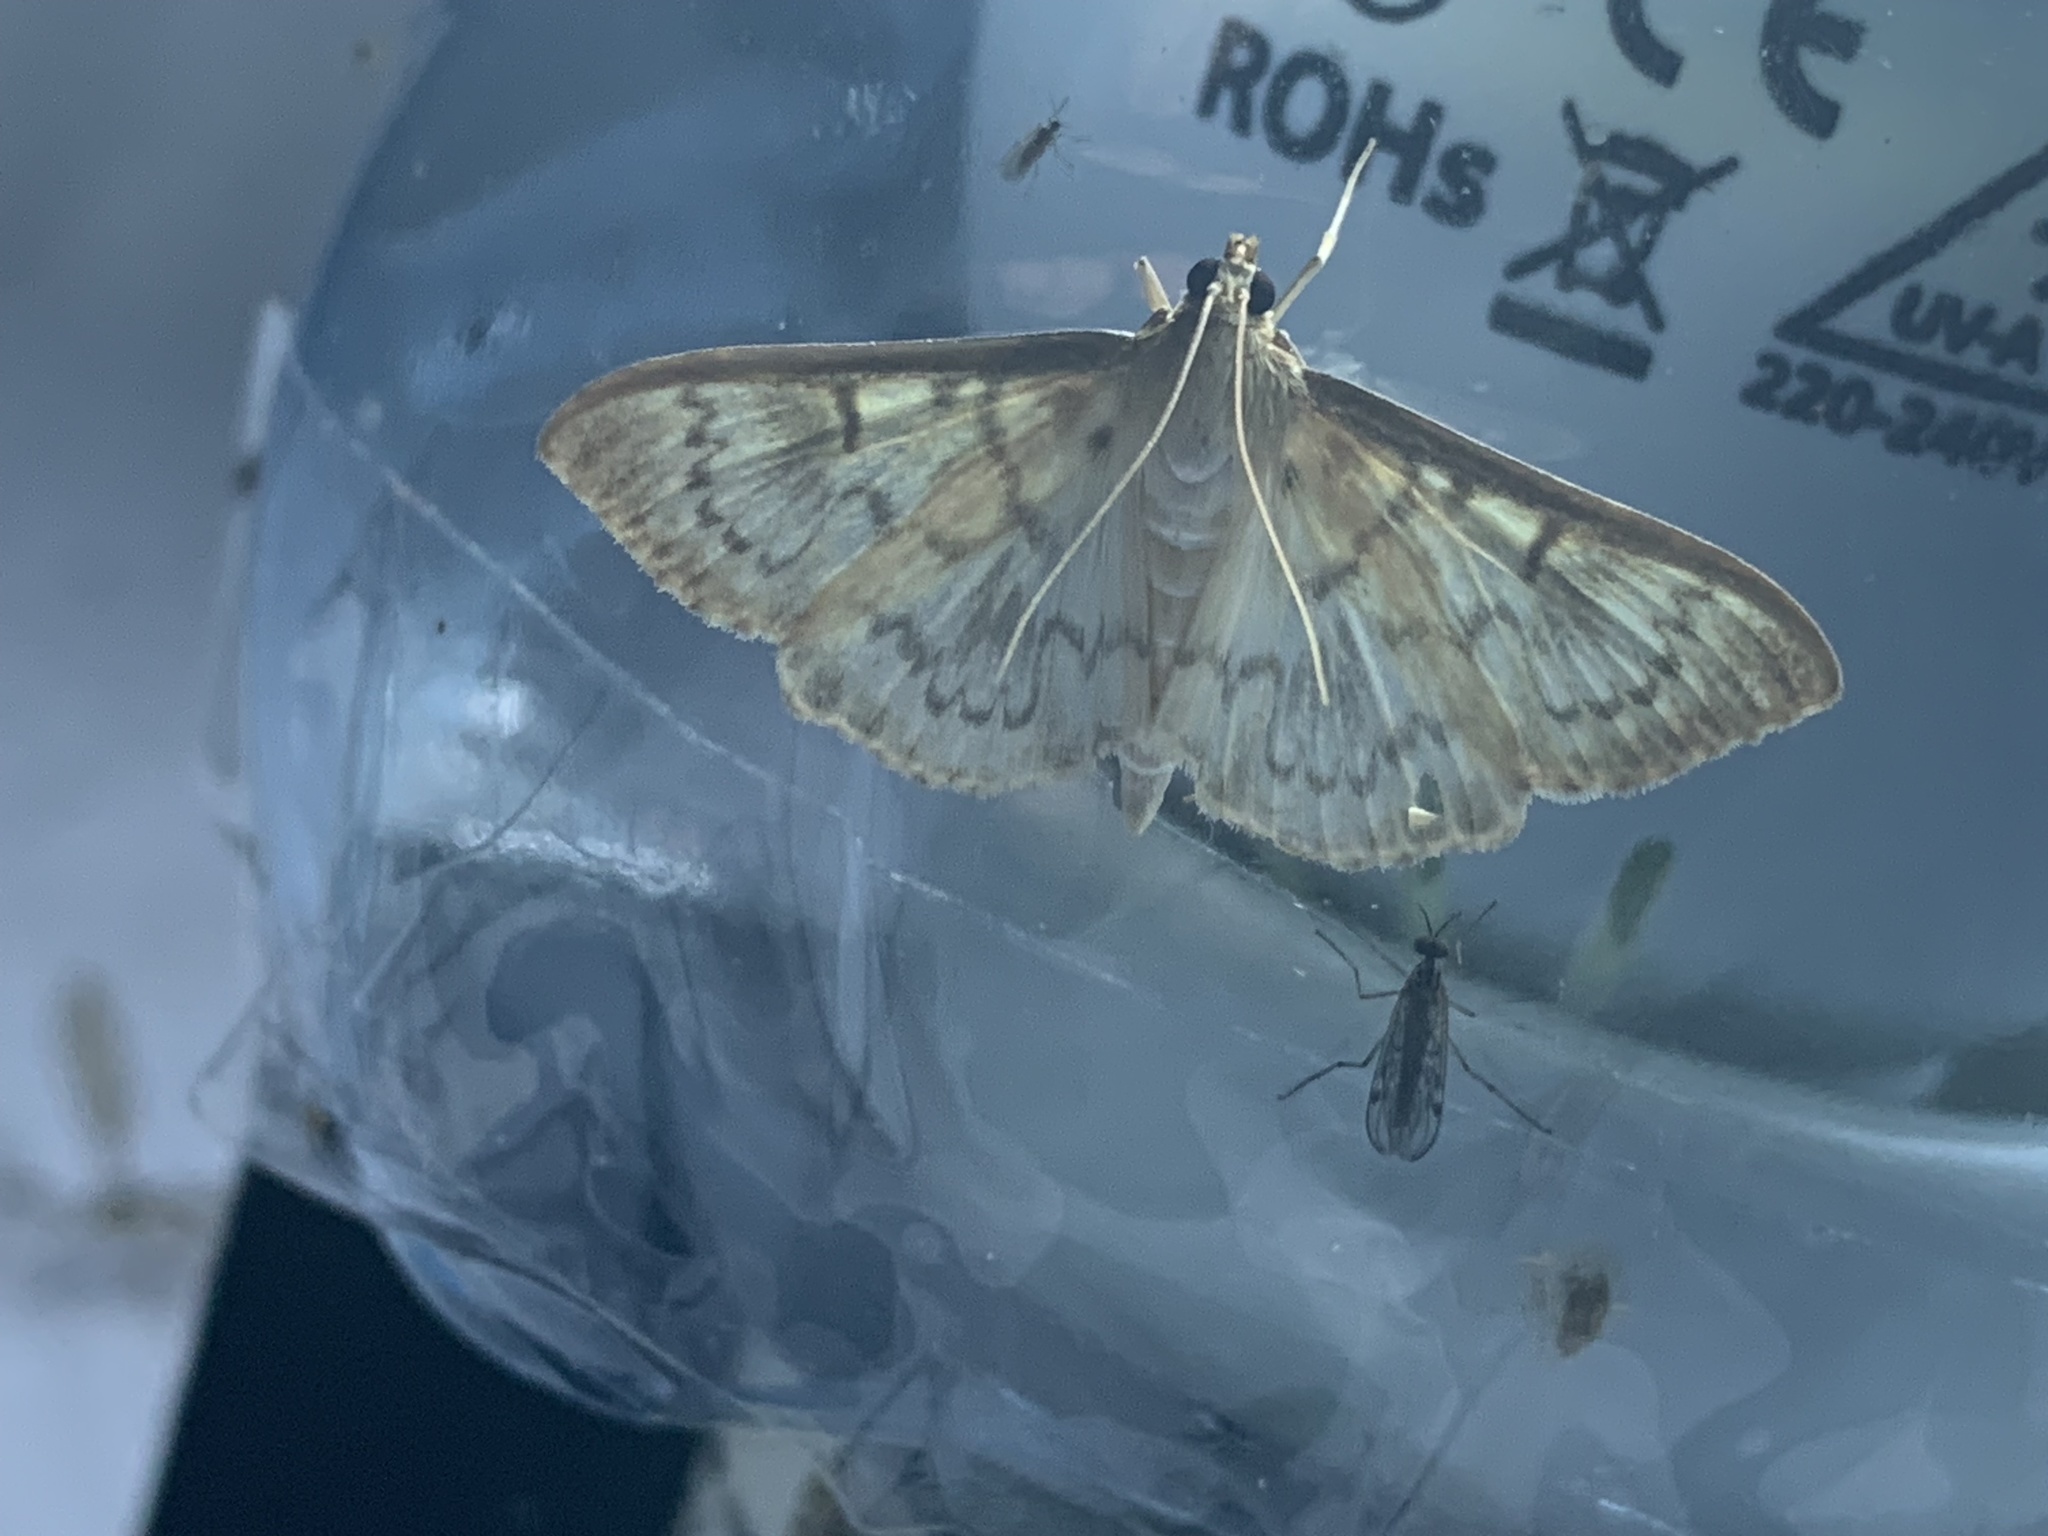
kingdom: Animalia
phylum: Arthropoda
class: Insecta
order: Lepidoptera
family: Crambidae
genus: Patania
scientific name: Patania ruralis
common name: Mother of pearl
